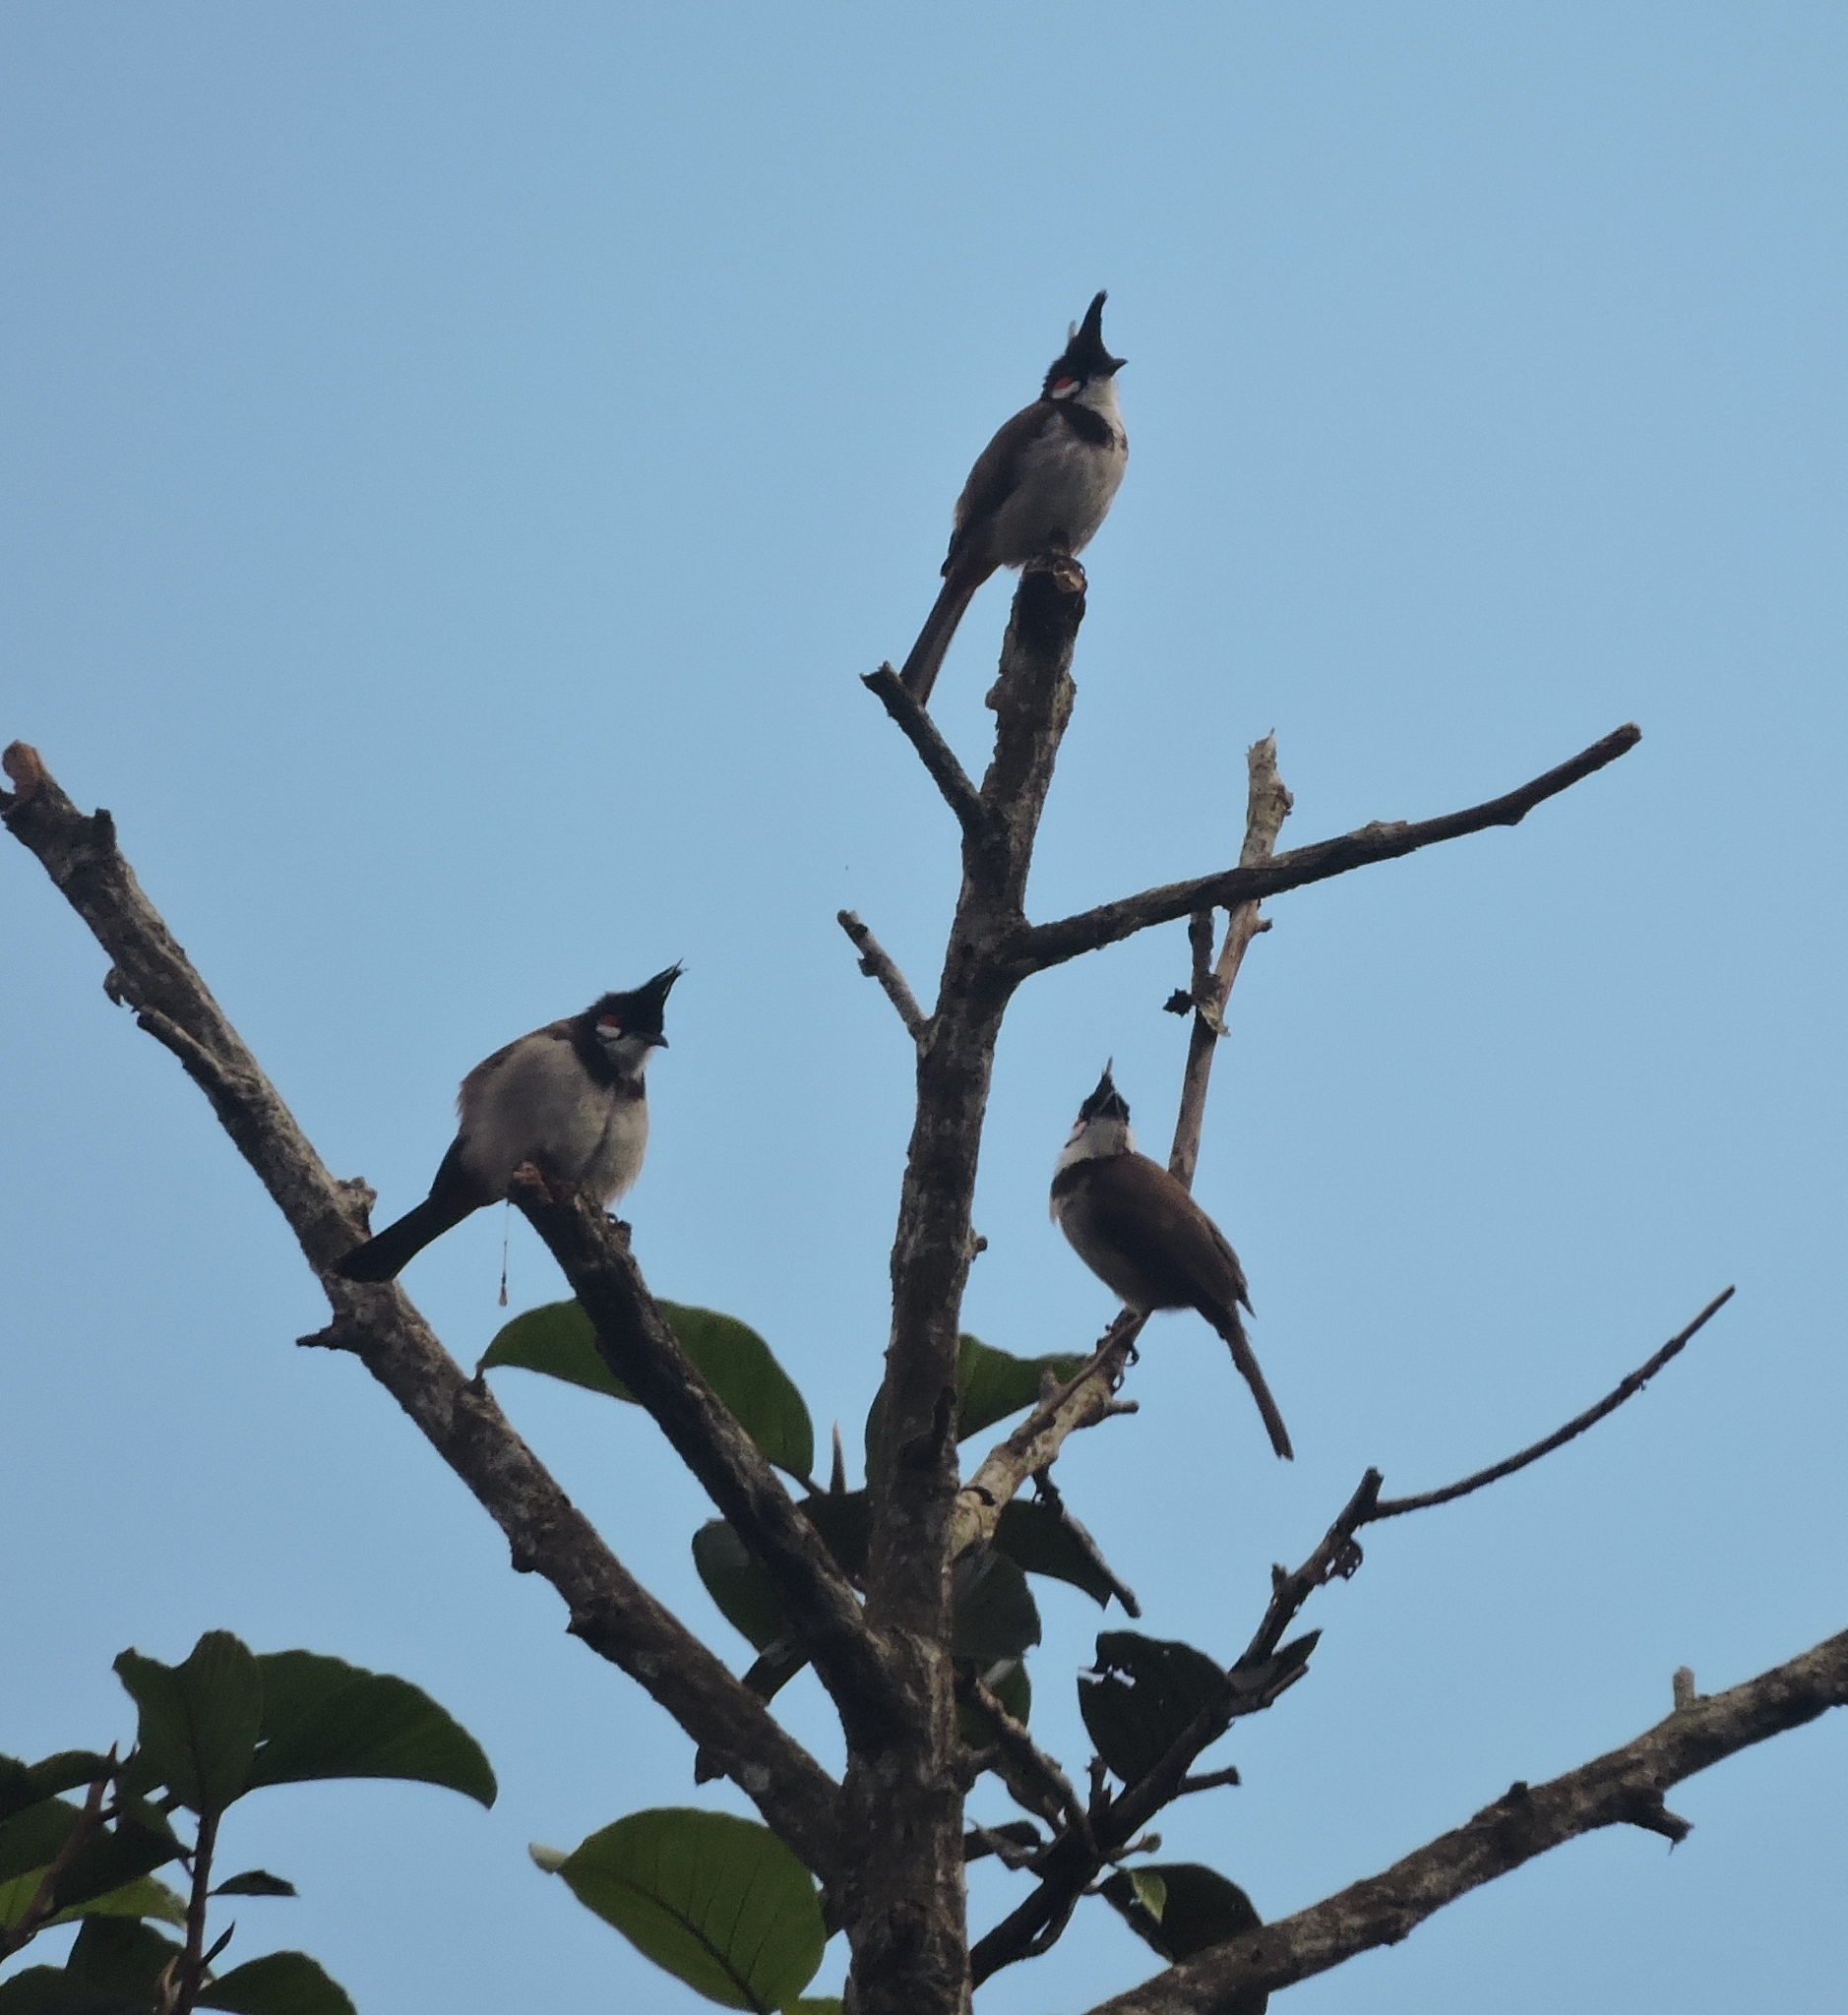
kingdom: Animalia
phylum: Chordata
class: Aves
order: Passeriformes
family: Pycnonotidae
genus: Pycnonotus
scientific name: Pycnonotus jocosus
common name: Red-whiskered bulbul
